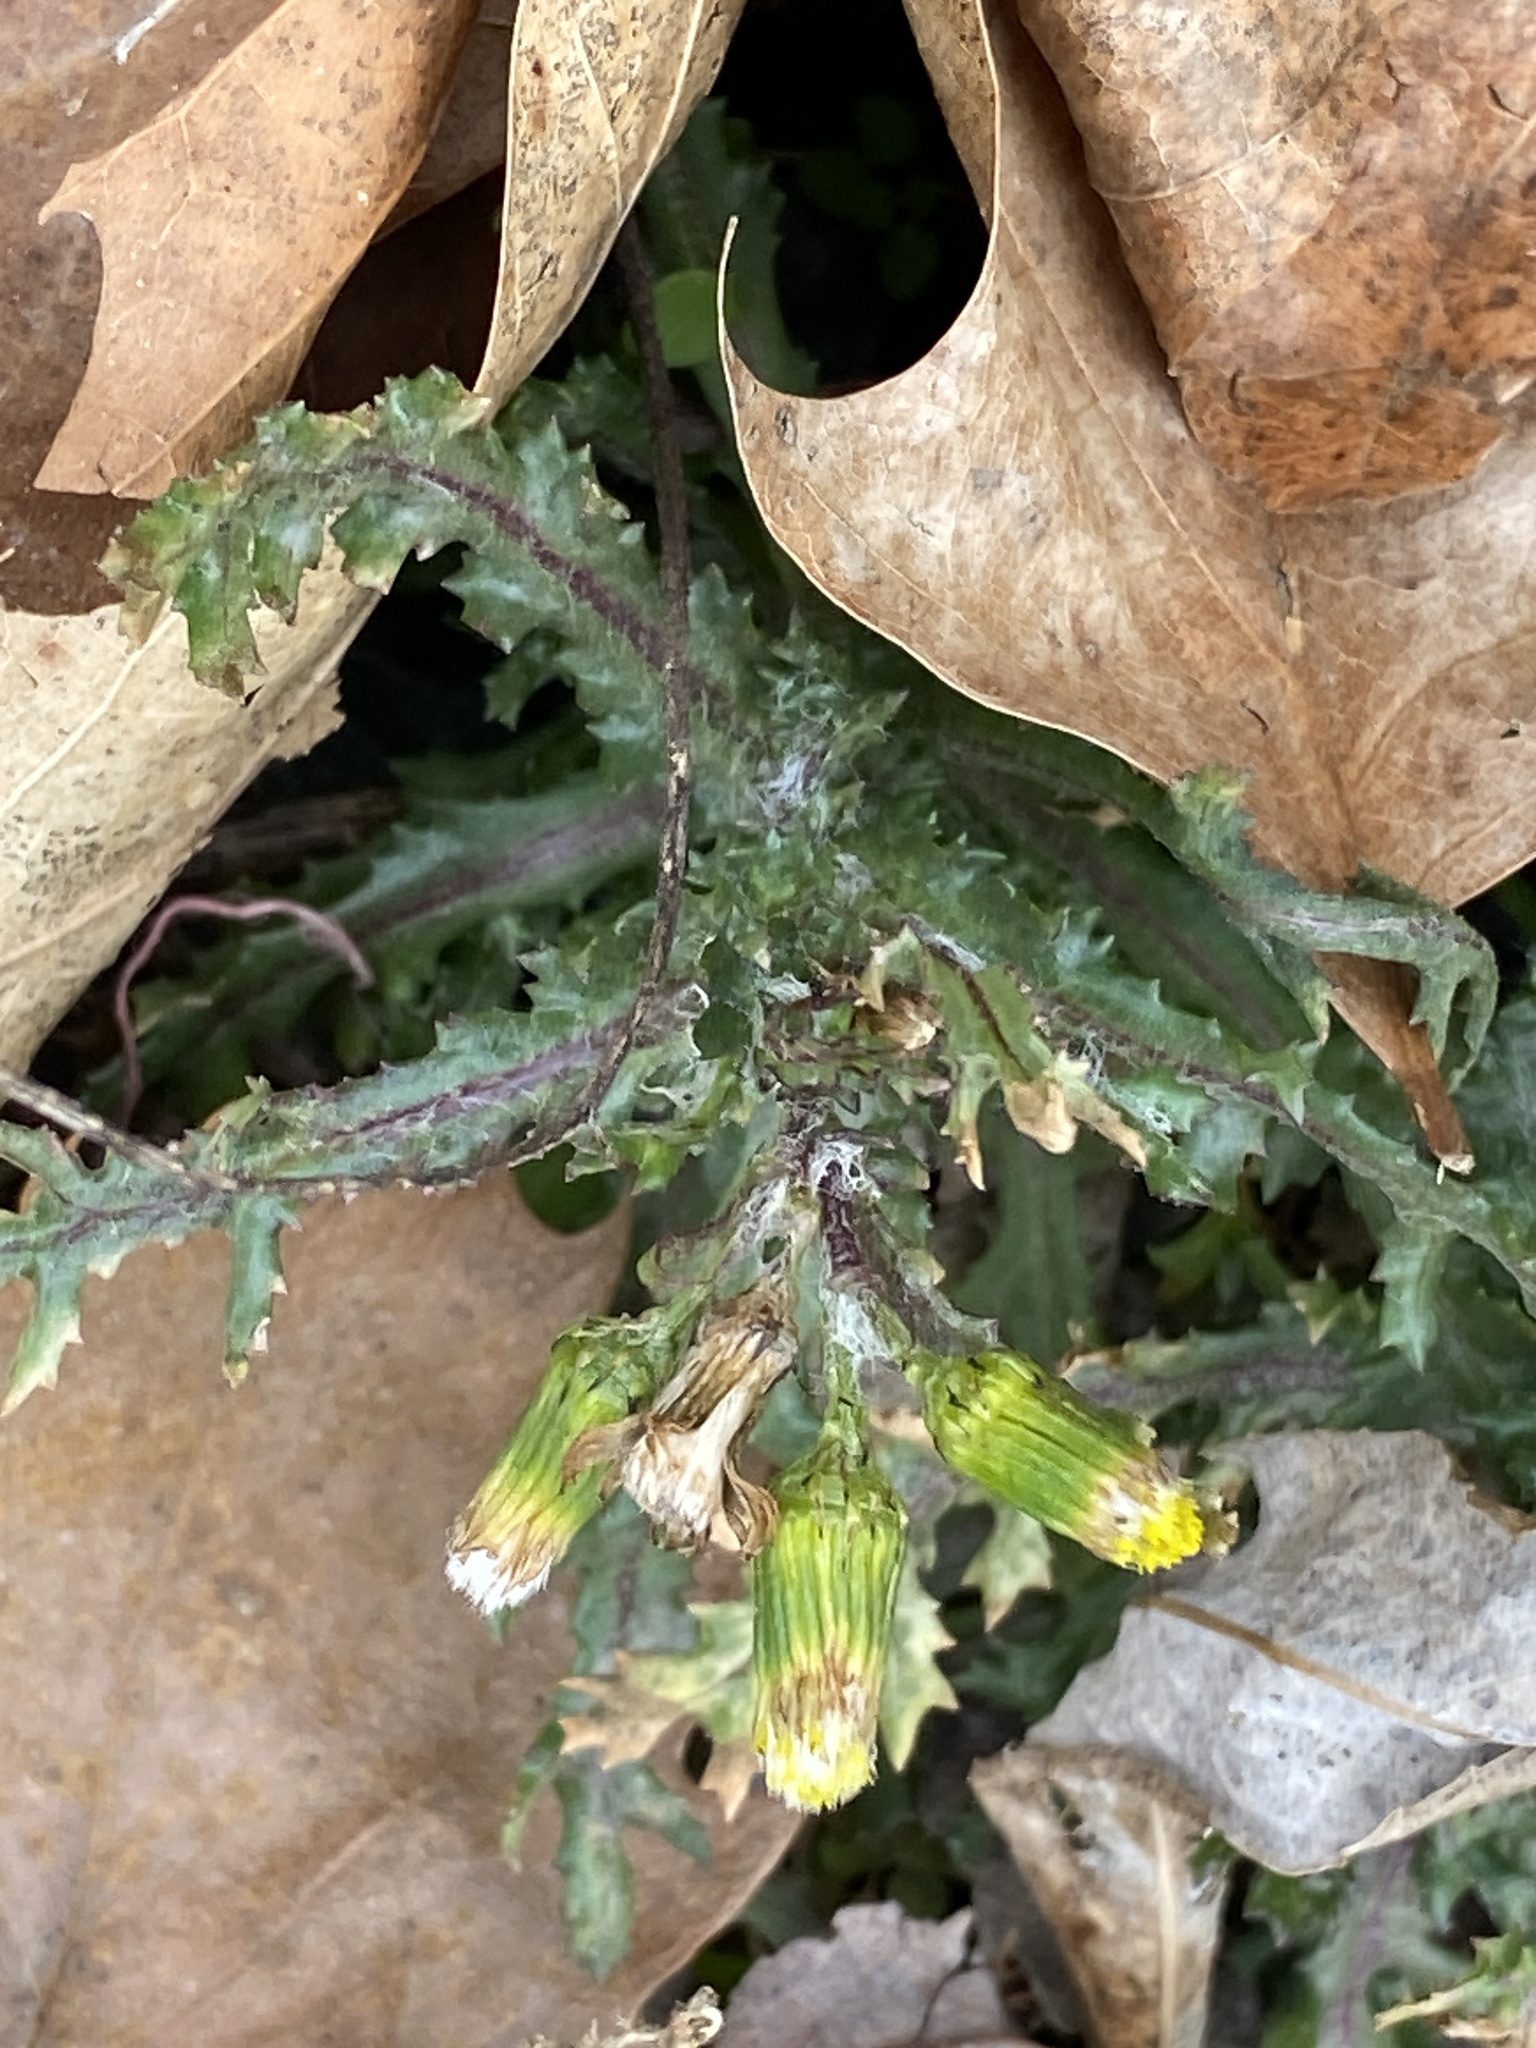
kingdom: Plantae
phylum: Tracheophyta
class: Magnoliopsida
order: Asterales
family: Asteraceae
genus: Senecio
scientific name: Senecio vulgaris
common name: Old-man-in-the-spring
